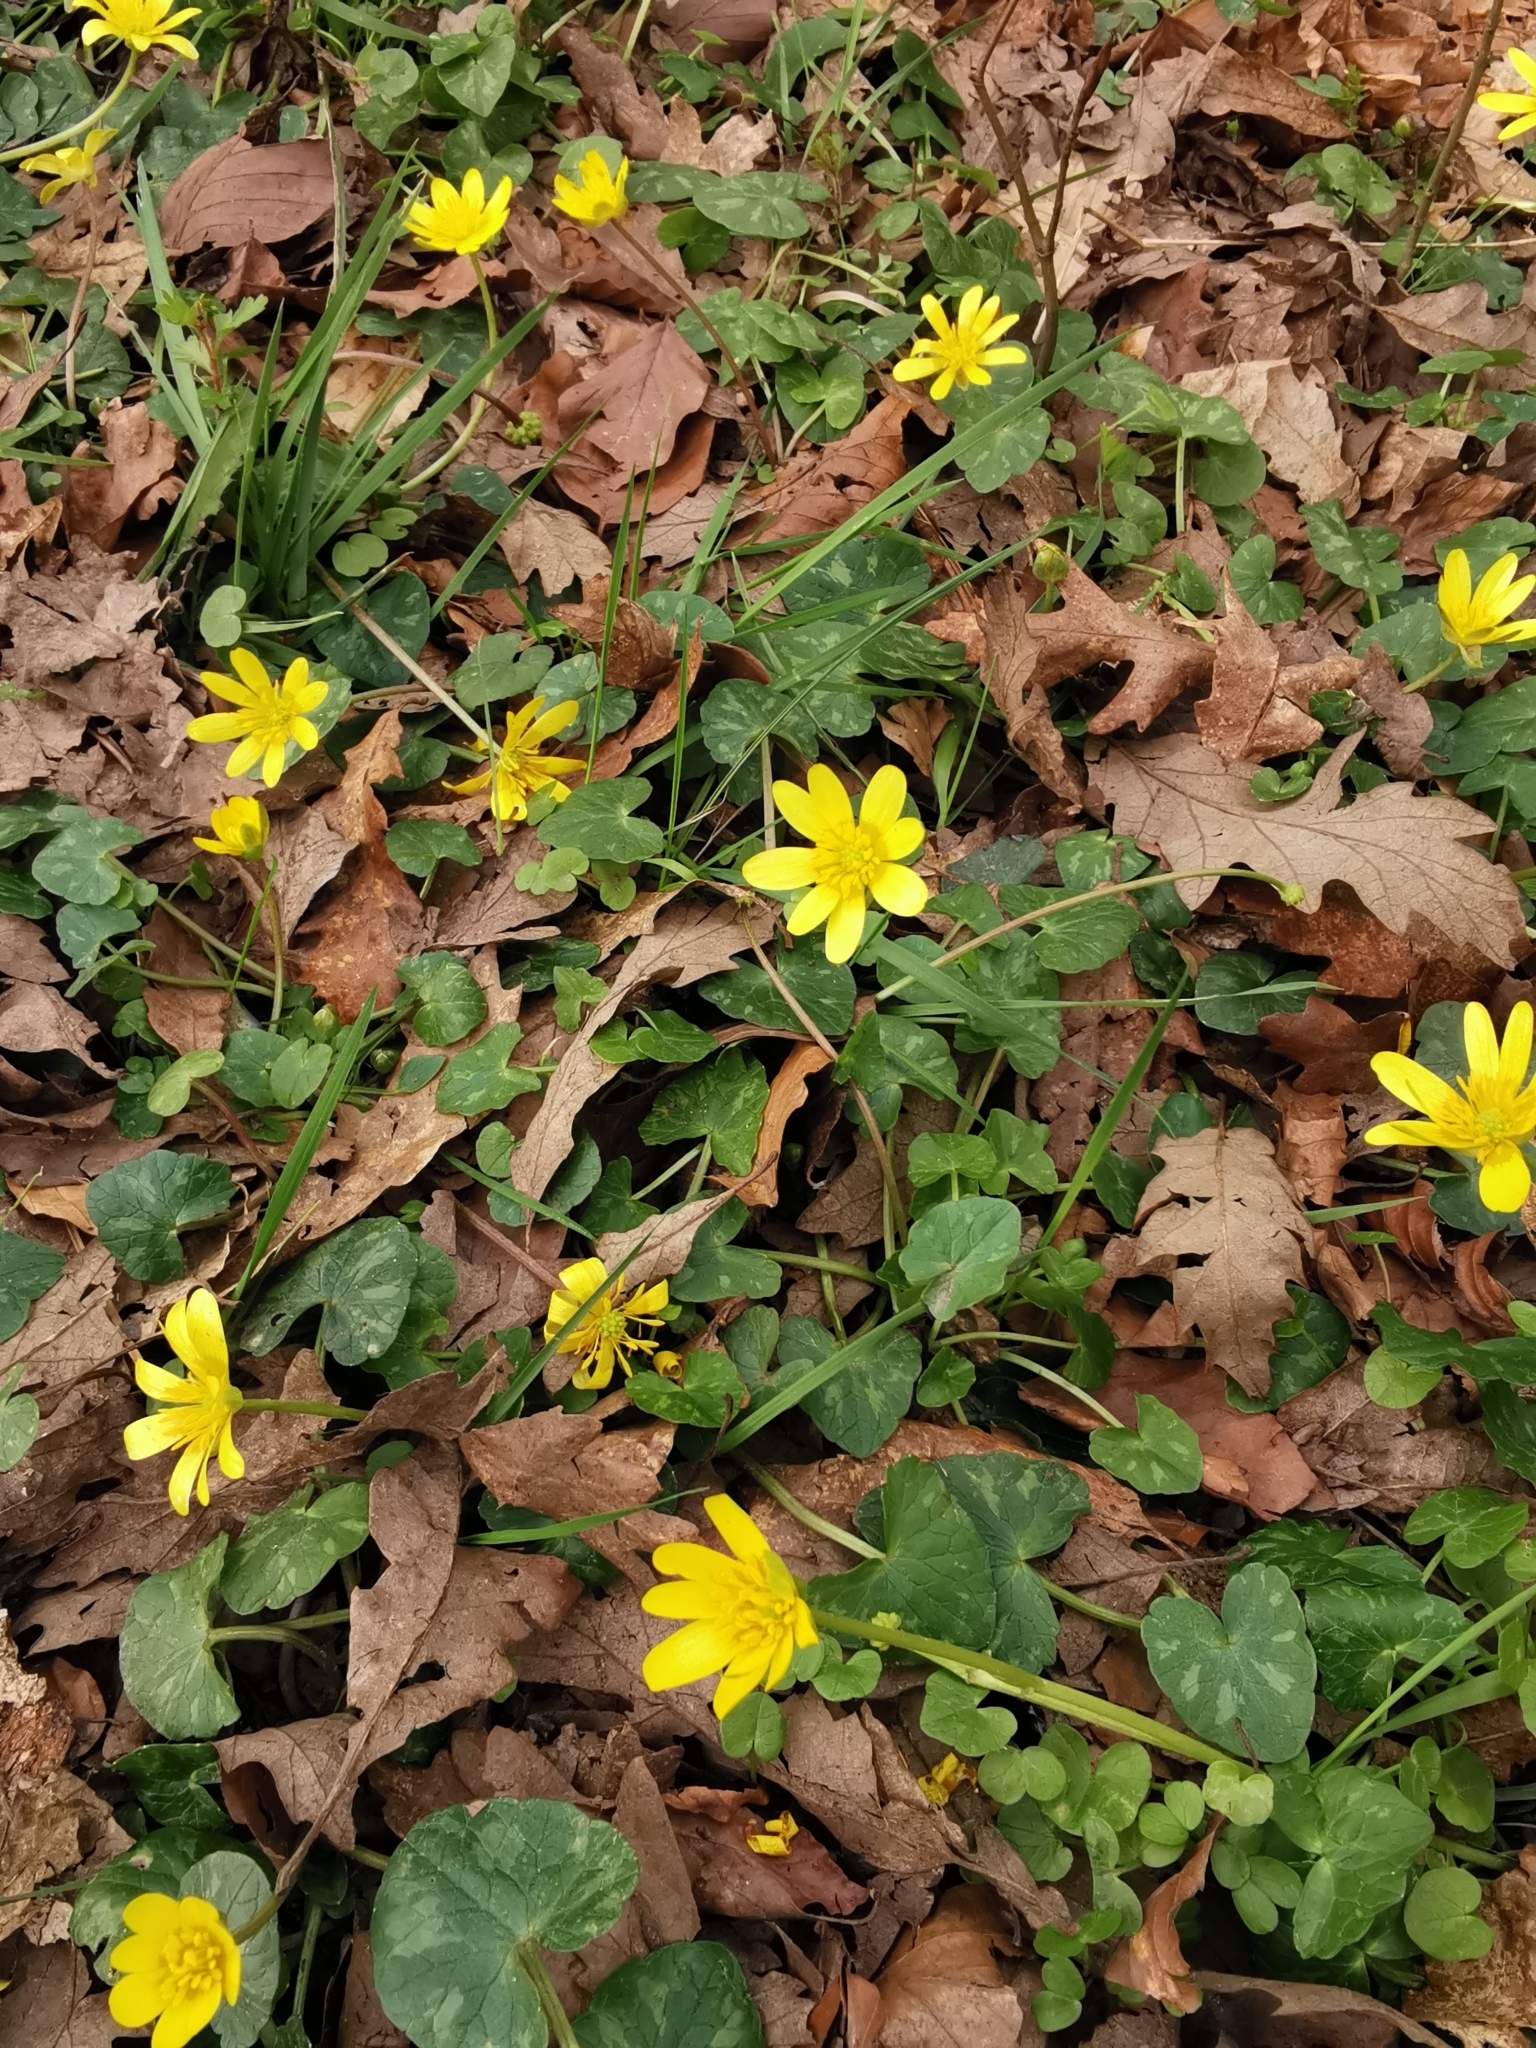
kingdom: Plantae
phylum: Tracheophyta
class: Magnoliopsida
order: Ranunculales
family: Ranunculaceae
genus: Ficaria
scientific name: Ficaria verna
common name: Lesser celandine
